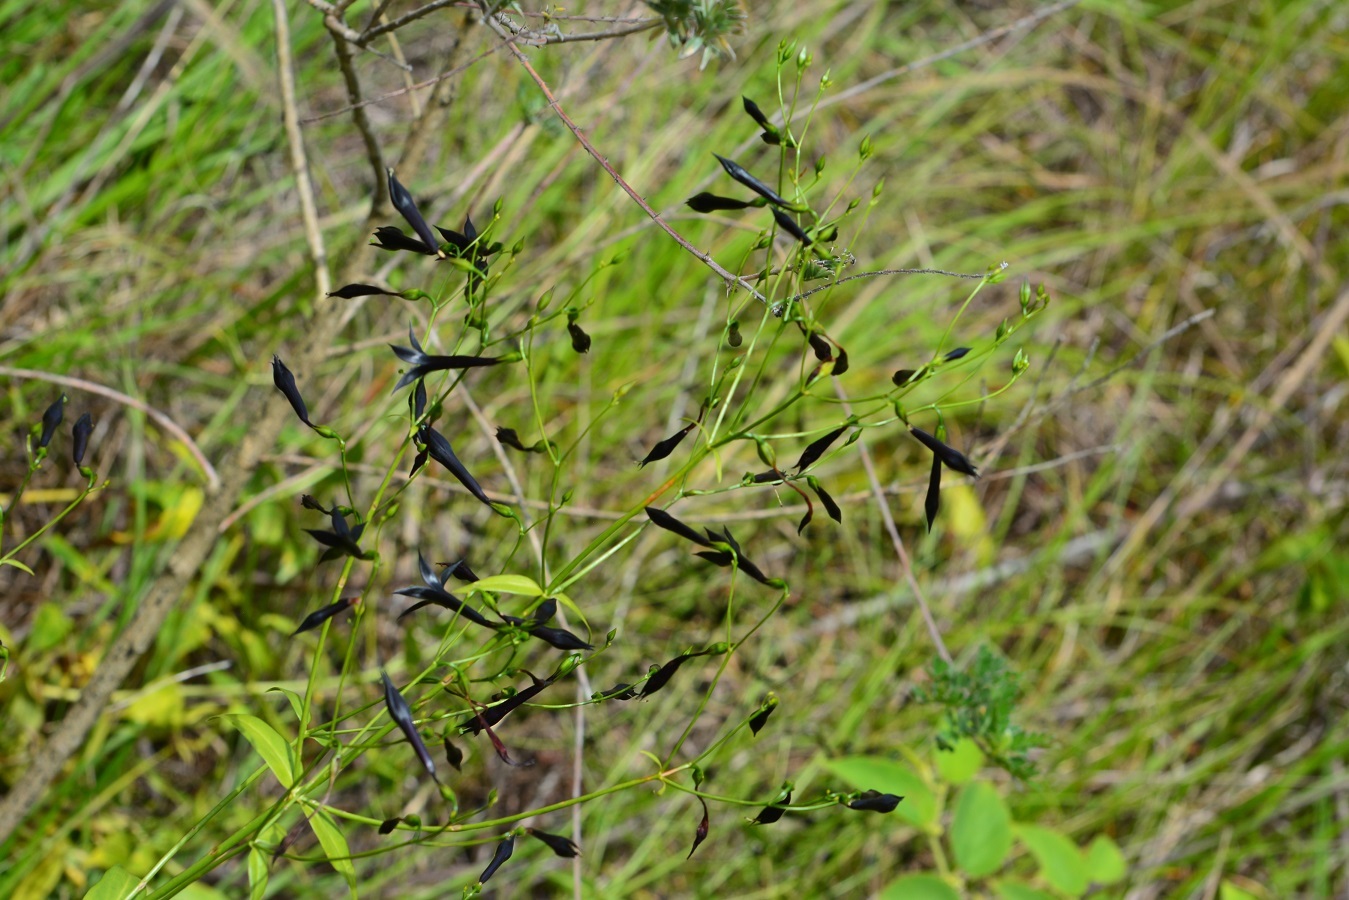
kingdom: Plantae
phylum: Tracheophyta
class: Magnoliopsida
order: Gentianales
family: Gentianaceae
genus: Lisianthus
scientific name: Lisianthus nigrescens
